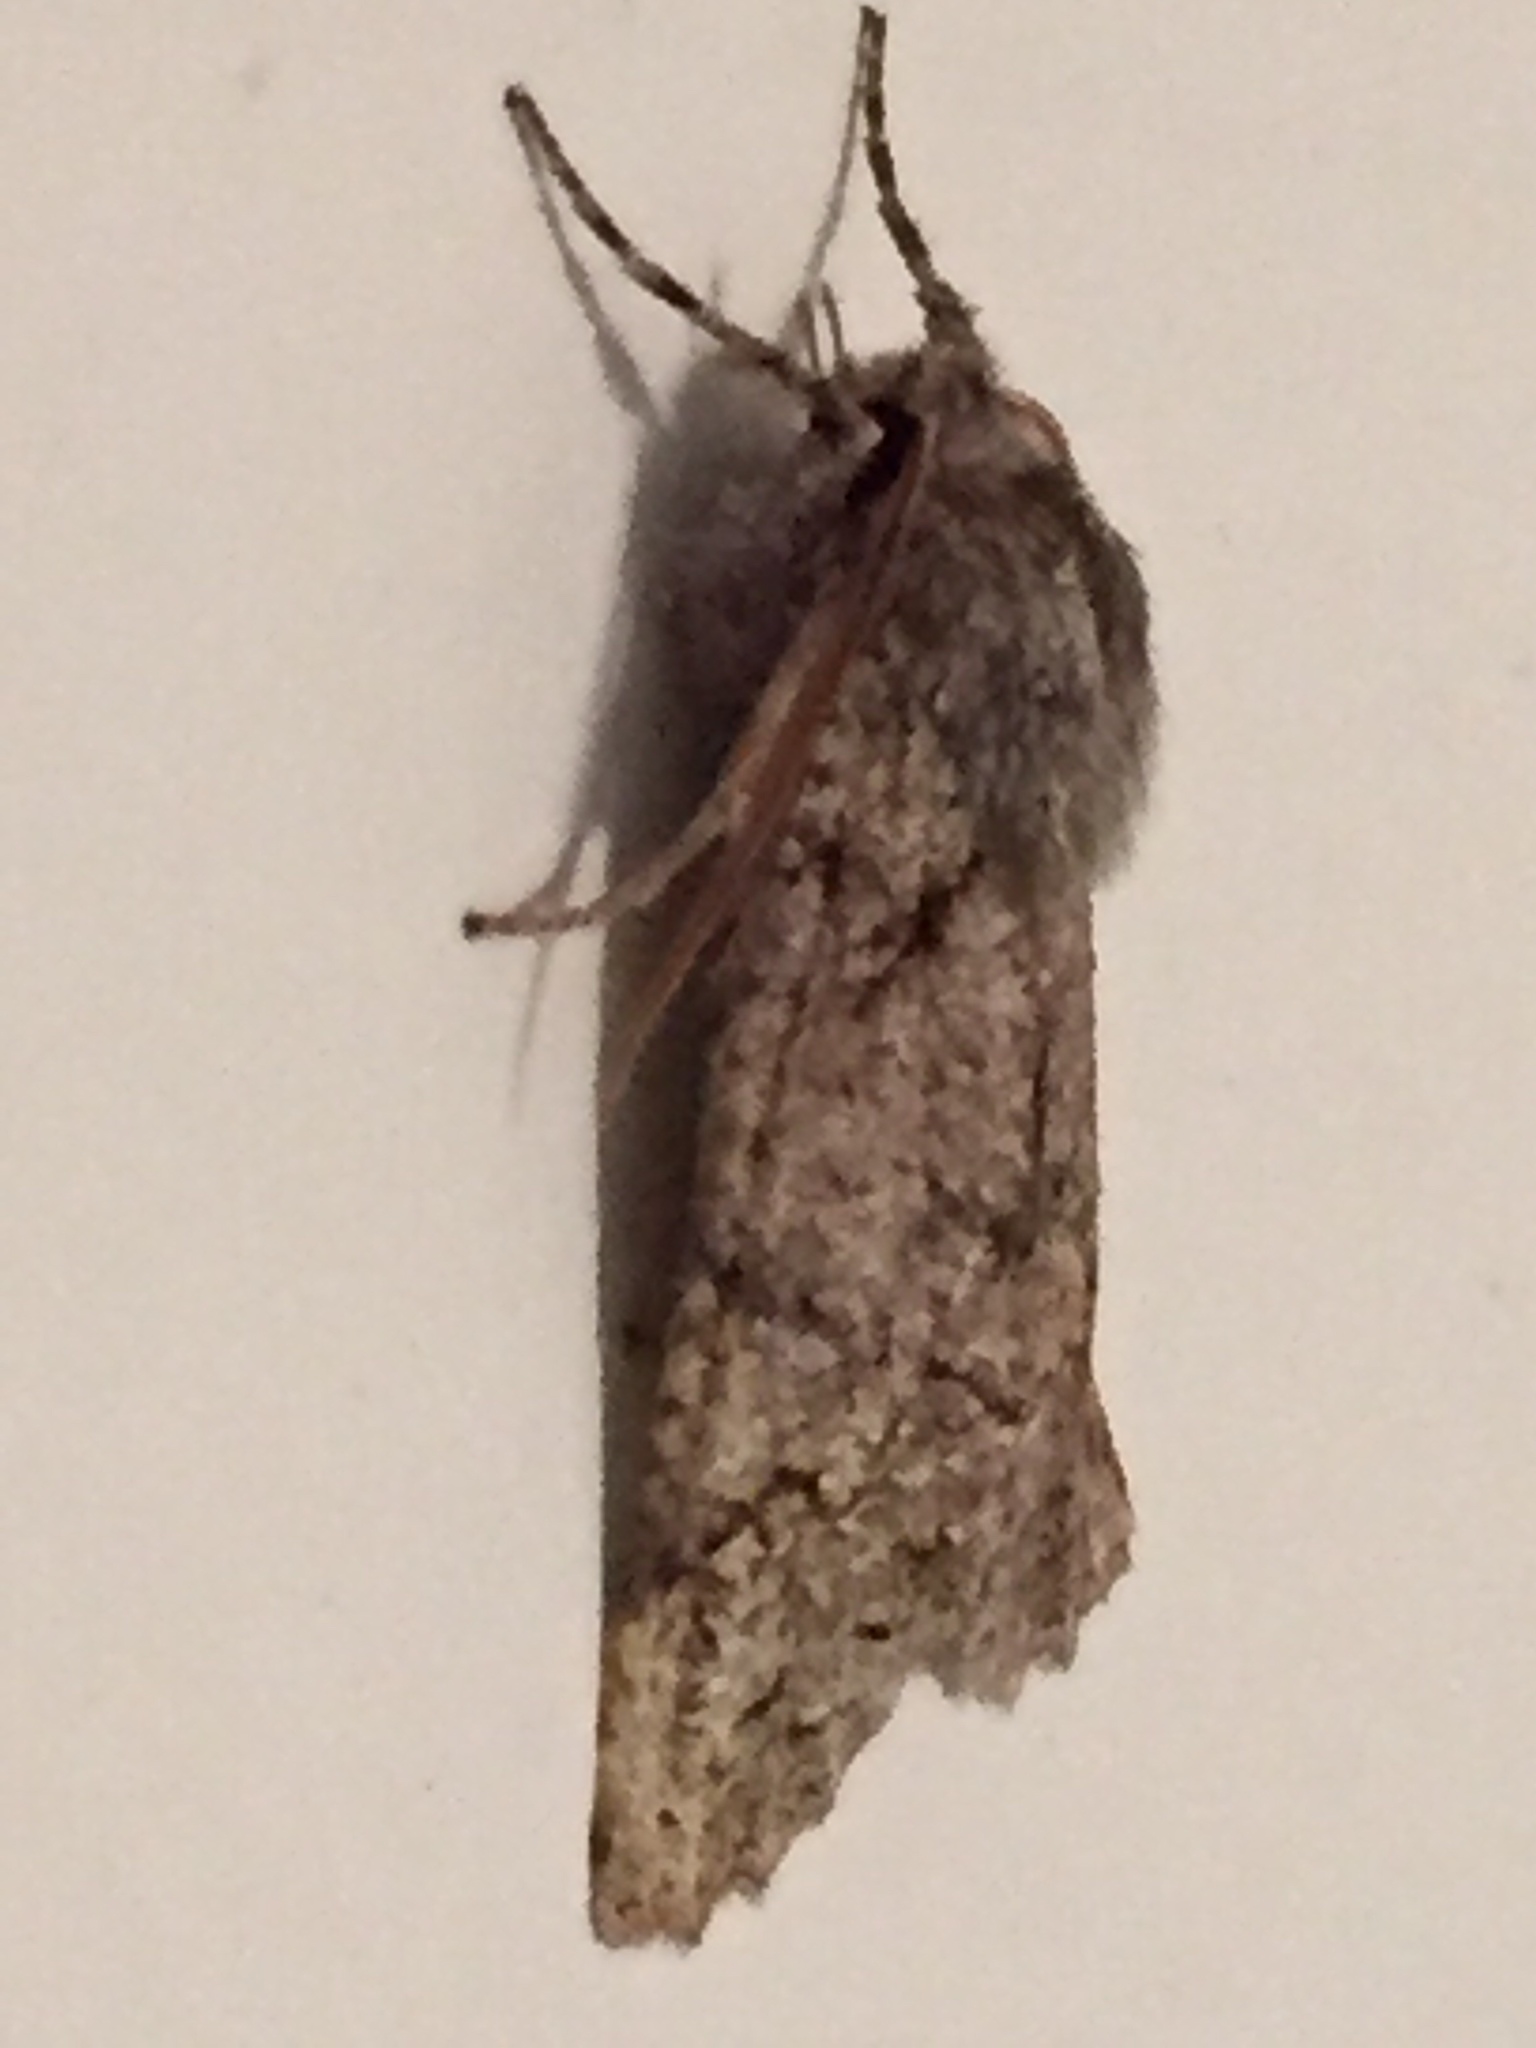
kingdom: Animalia
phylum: Arthropoda
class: Insecta
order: Lepidoptera
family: Geometridae
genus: Declana
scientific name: Declana floccosa
